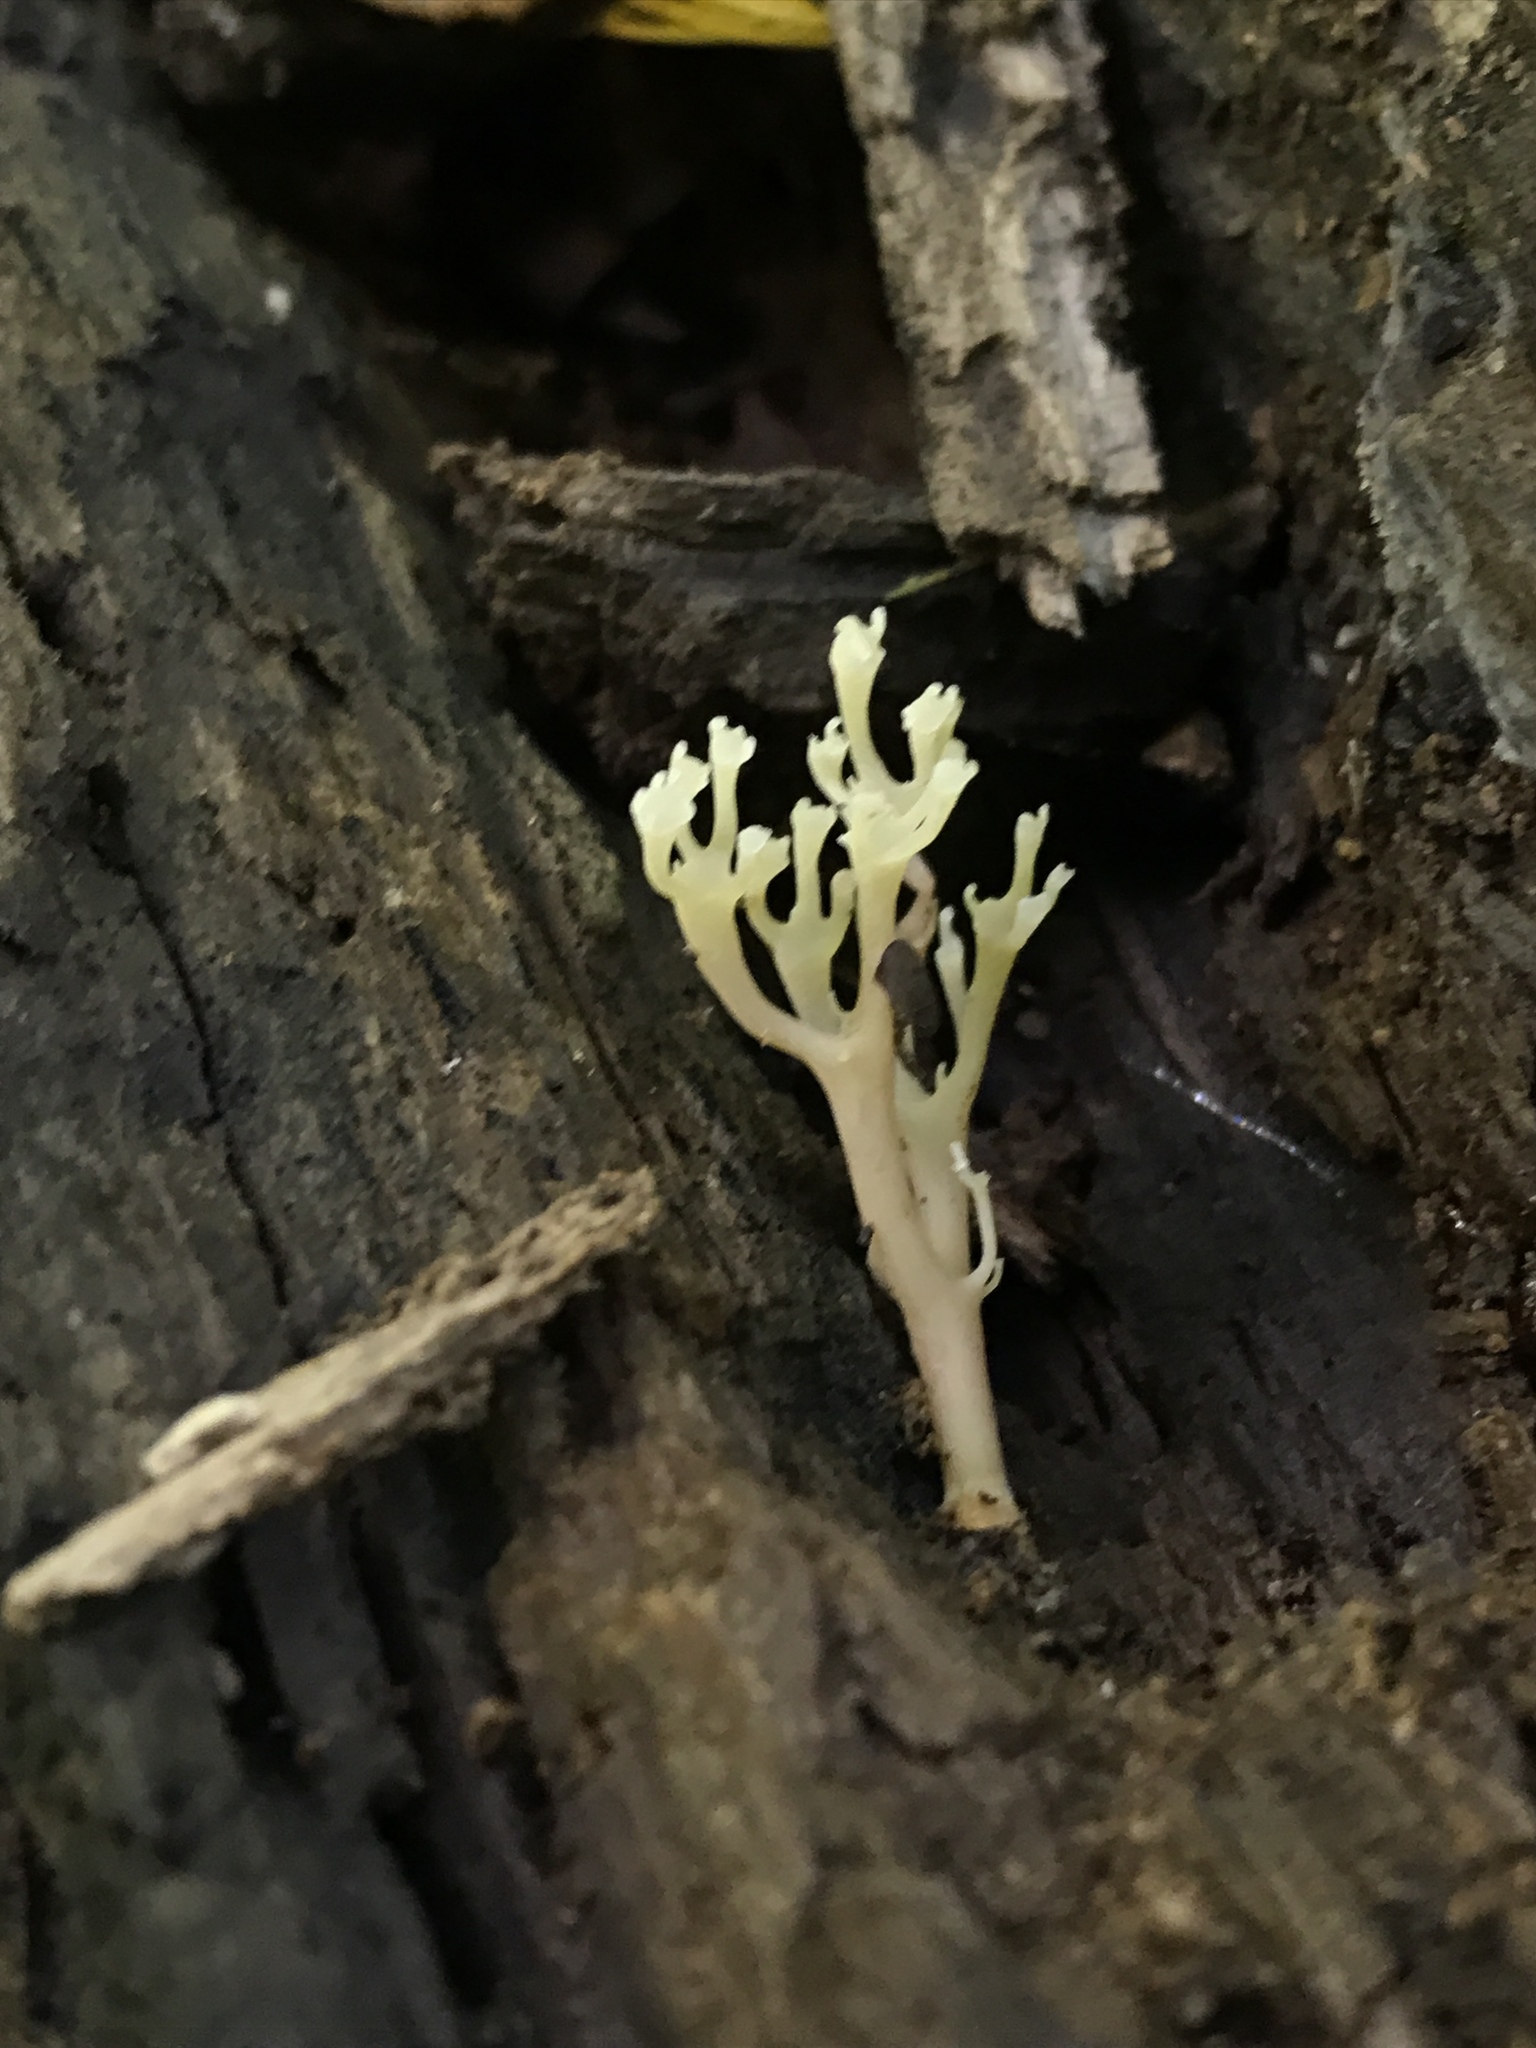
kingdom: Fungi
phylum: Basidiomycota
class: Agaricomycetes
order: Russulales
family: Auriscalpiaceae
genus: Artomyces
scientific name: Artomyces pyxidatus
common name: Crown-tipped coral fungus
